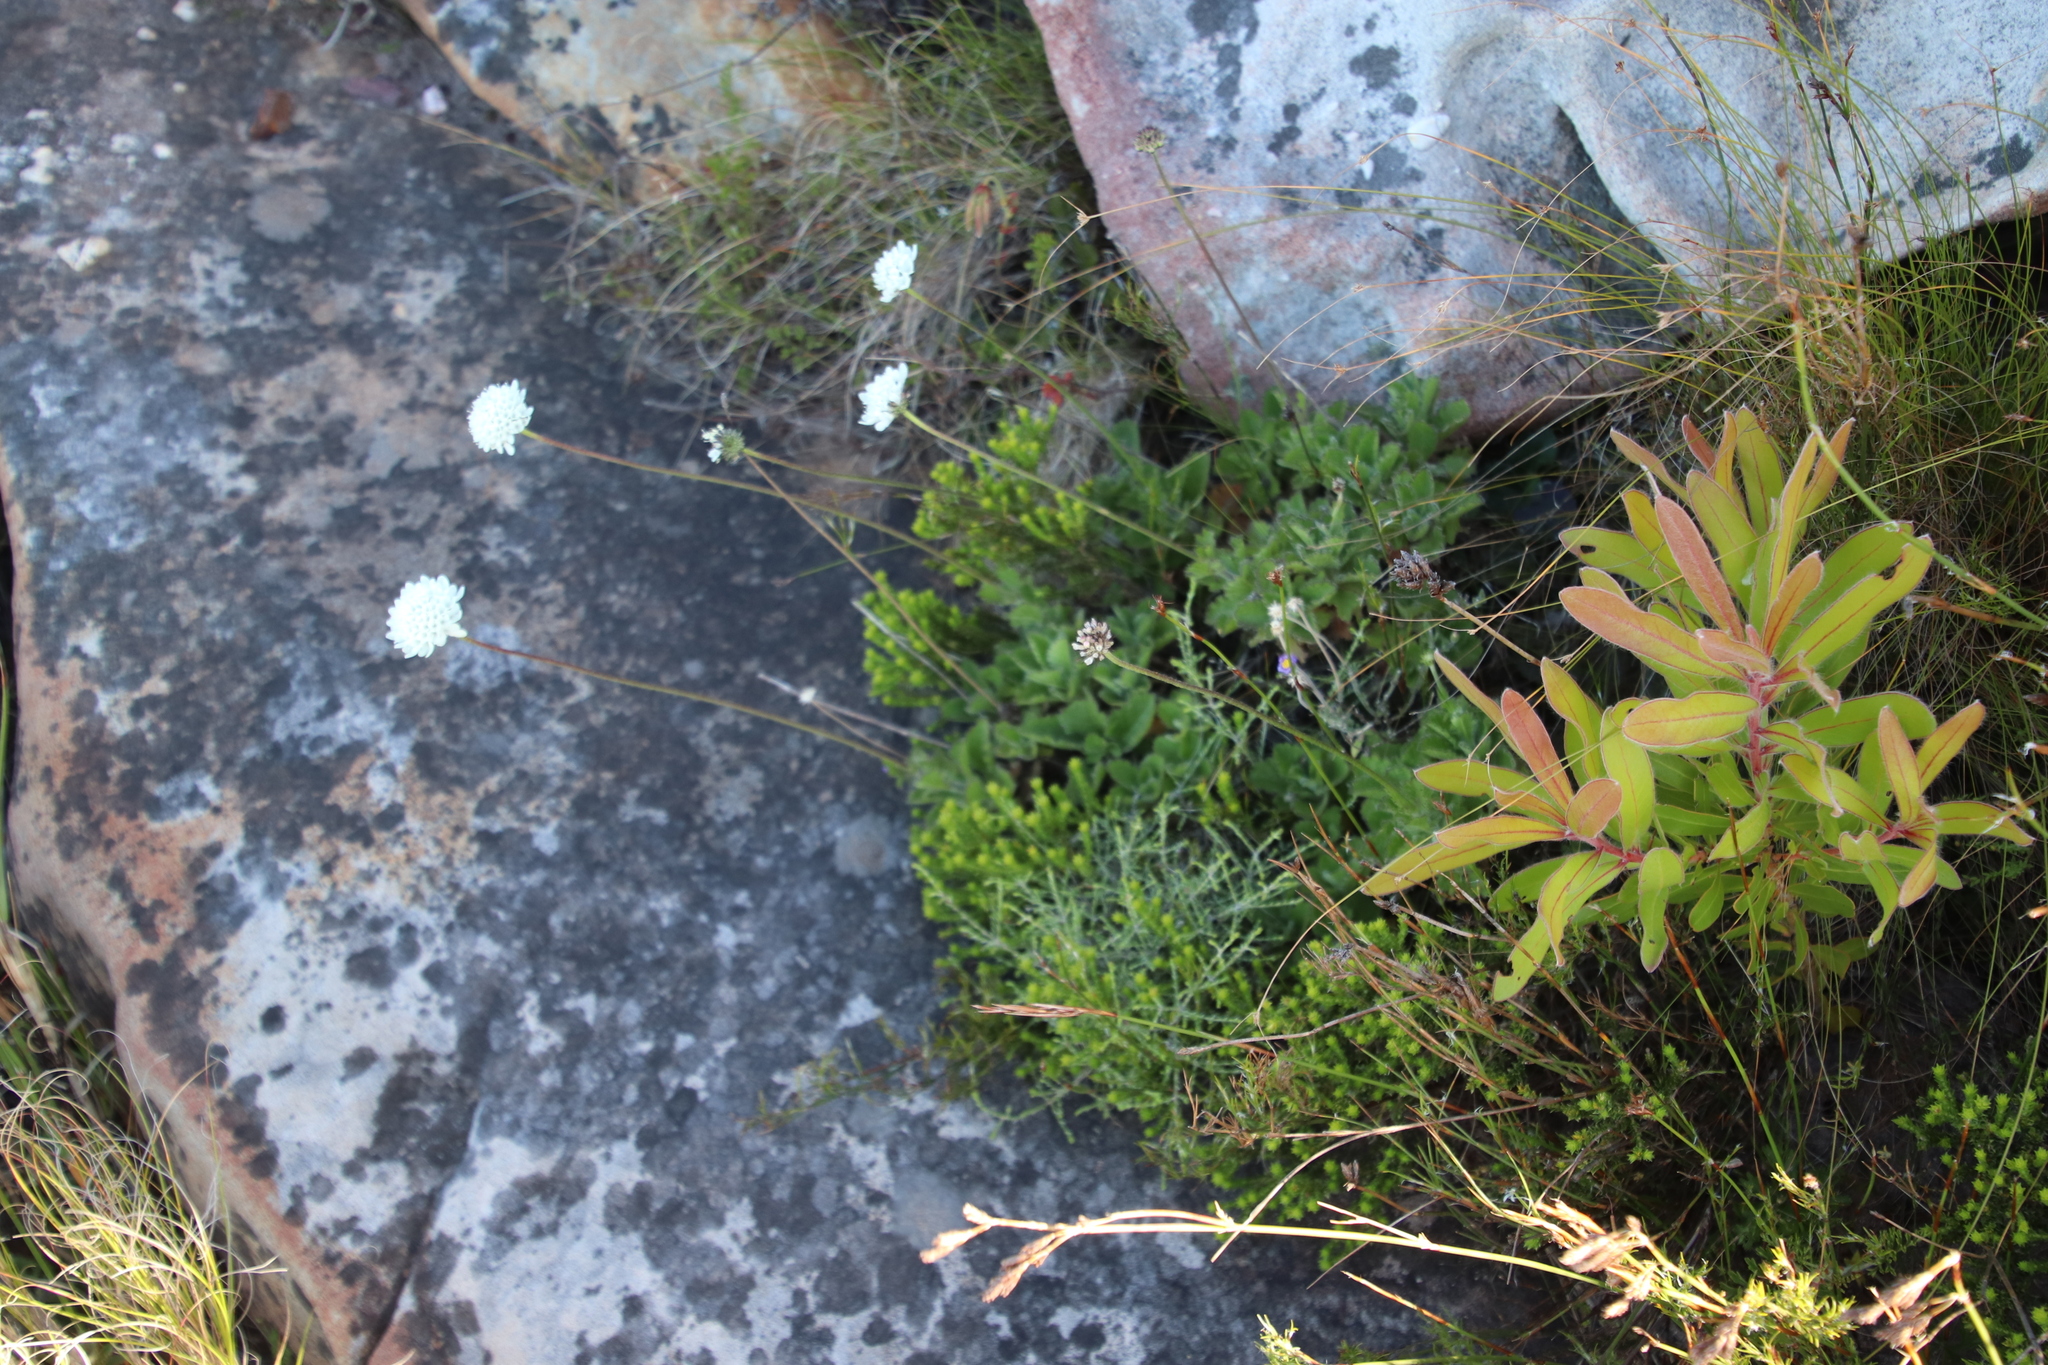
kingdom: Plantae
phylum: Tracheophyta
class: Magnoliopsida
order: Dipsacales
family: Caprifoliaceae
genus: Scabiosa
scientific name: Scabiosa africana
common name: Cape scabious
